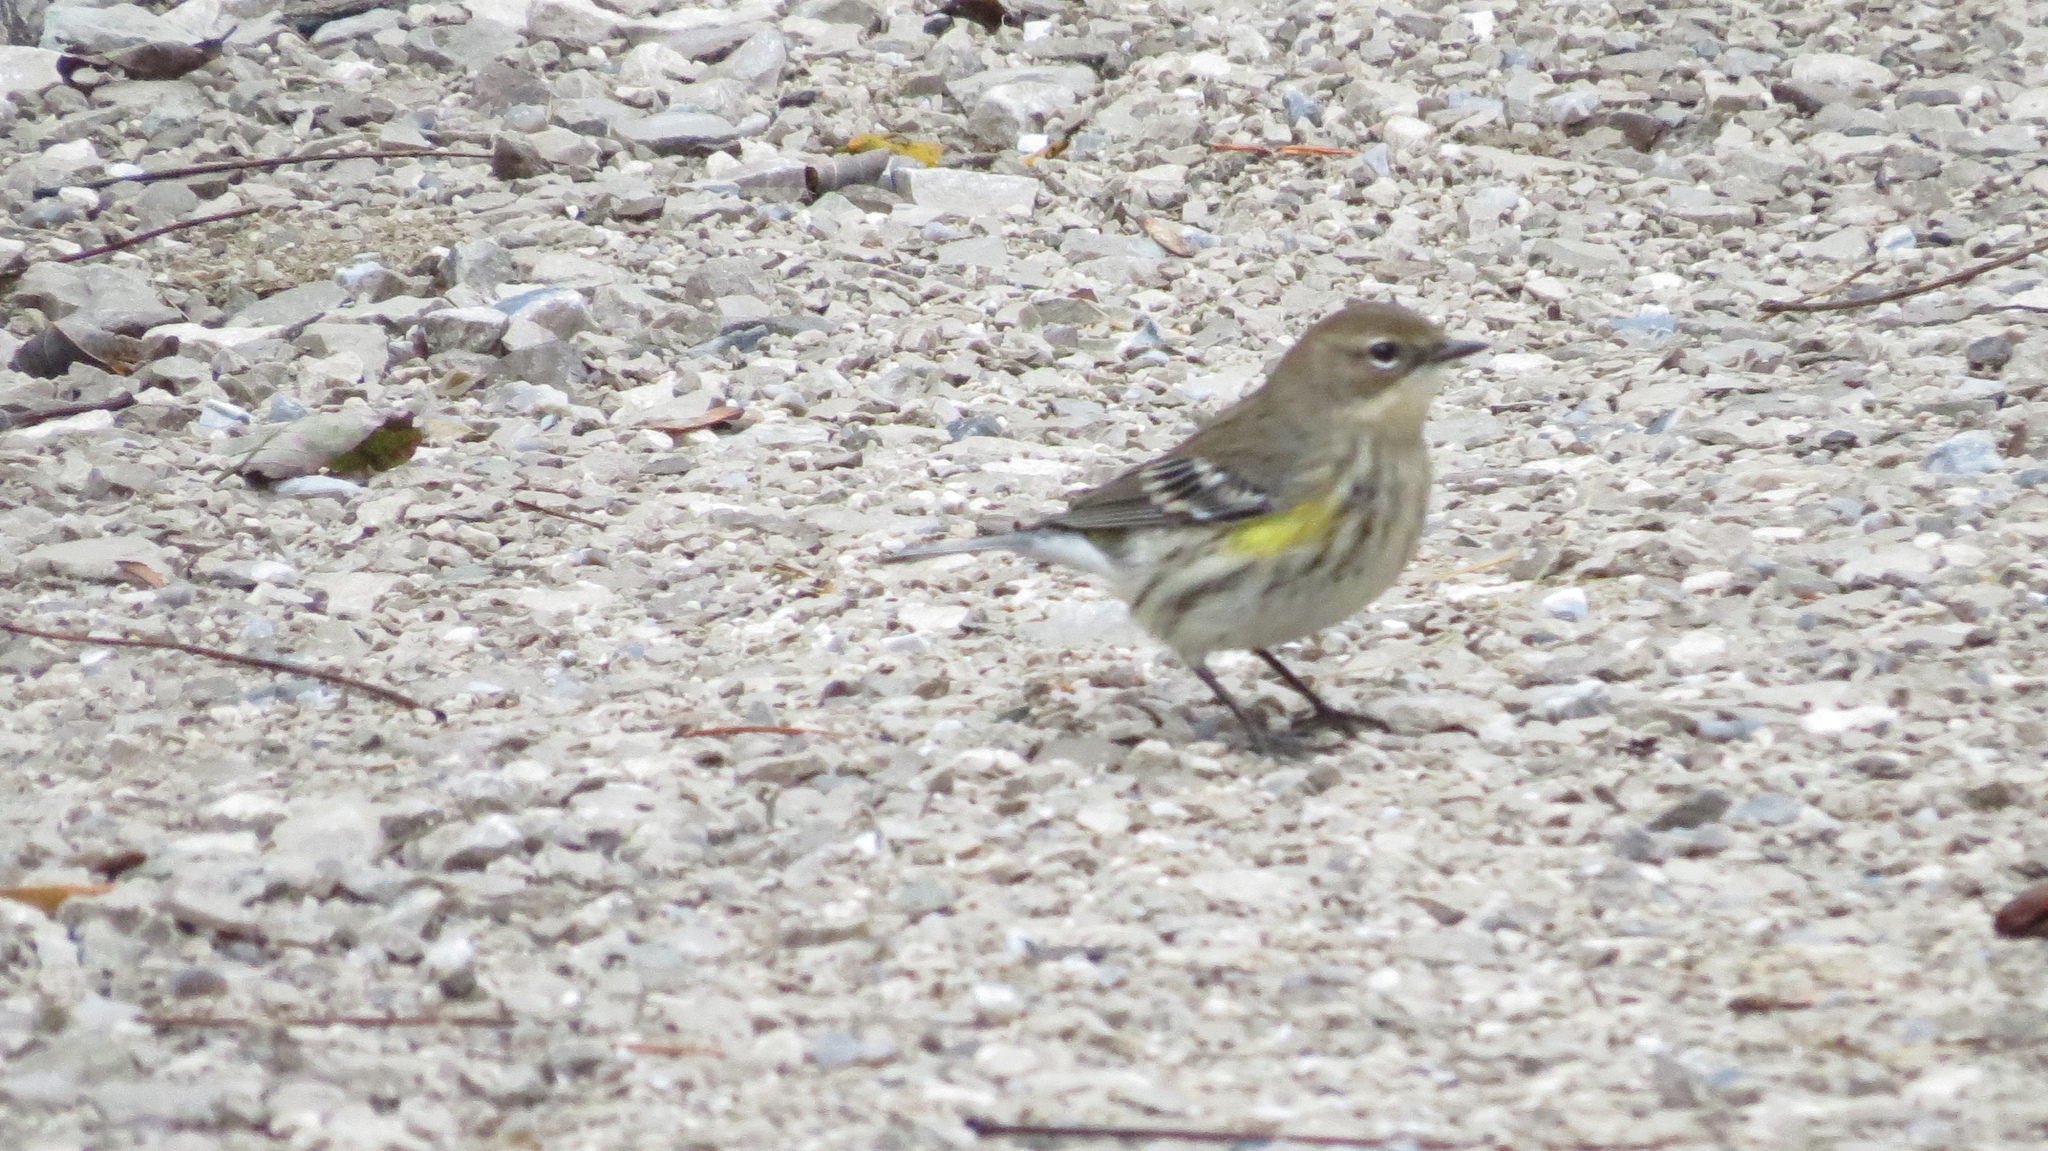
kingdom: Animalia
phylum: Chordata
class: Aves
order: Passeriformes
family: Parulidae
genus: Setophaga
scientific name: Setophaga coronata
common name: Myrtle warbler
